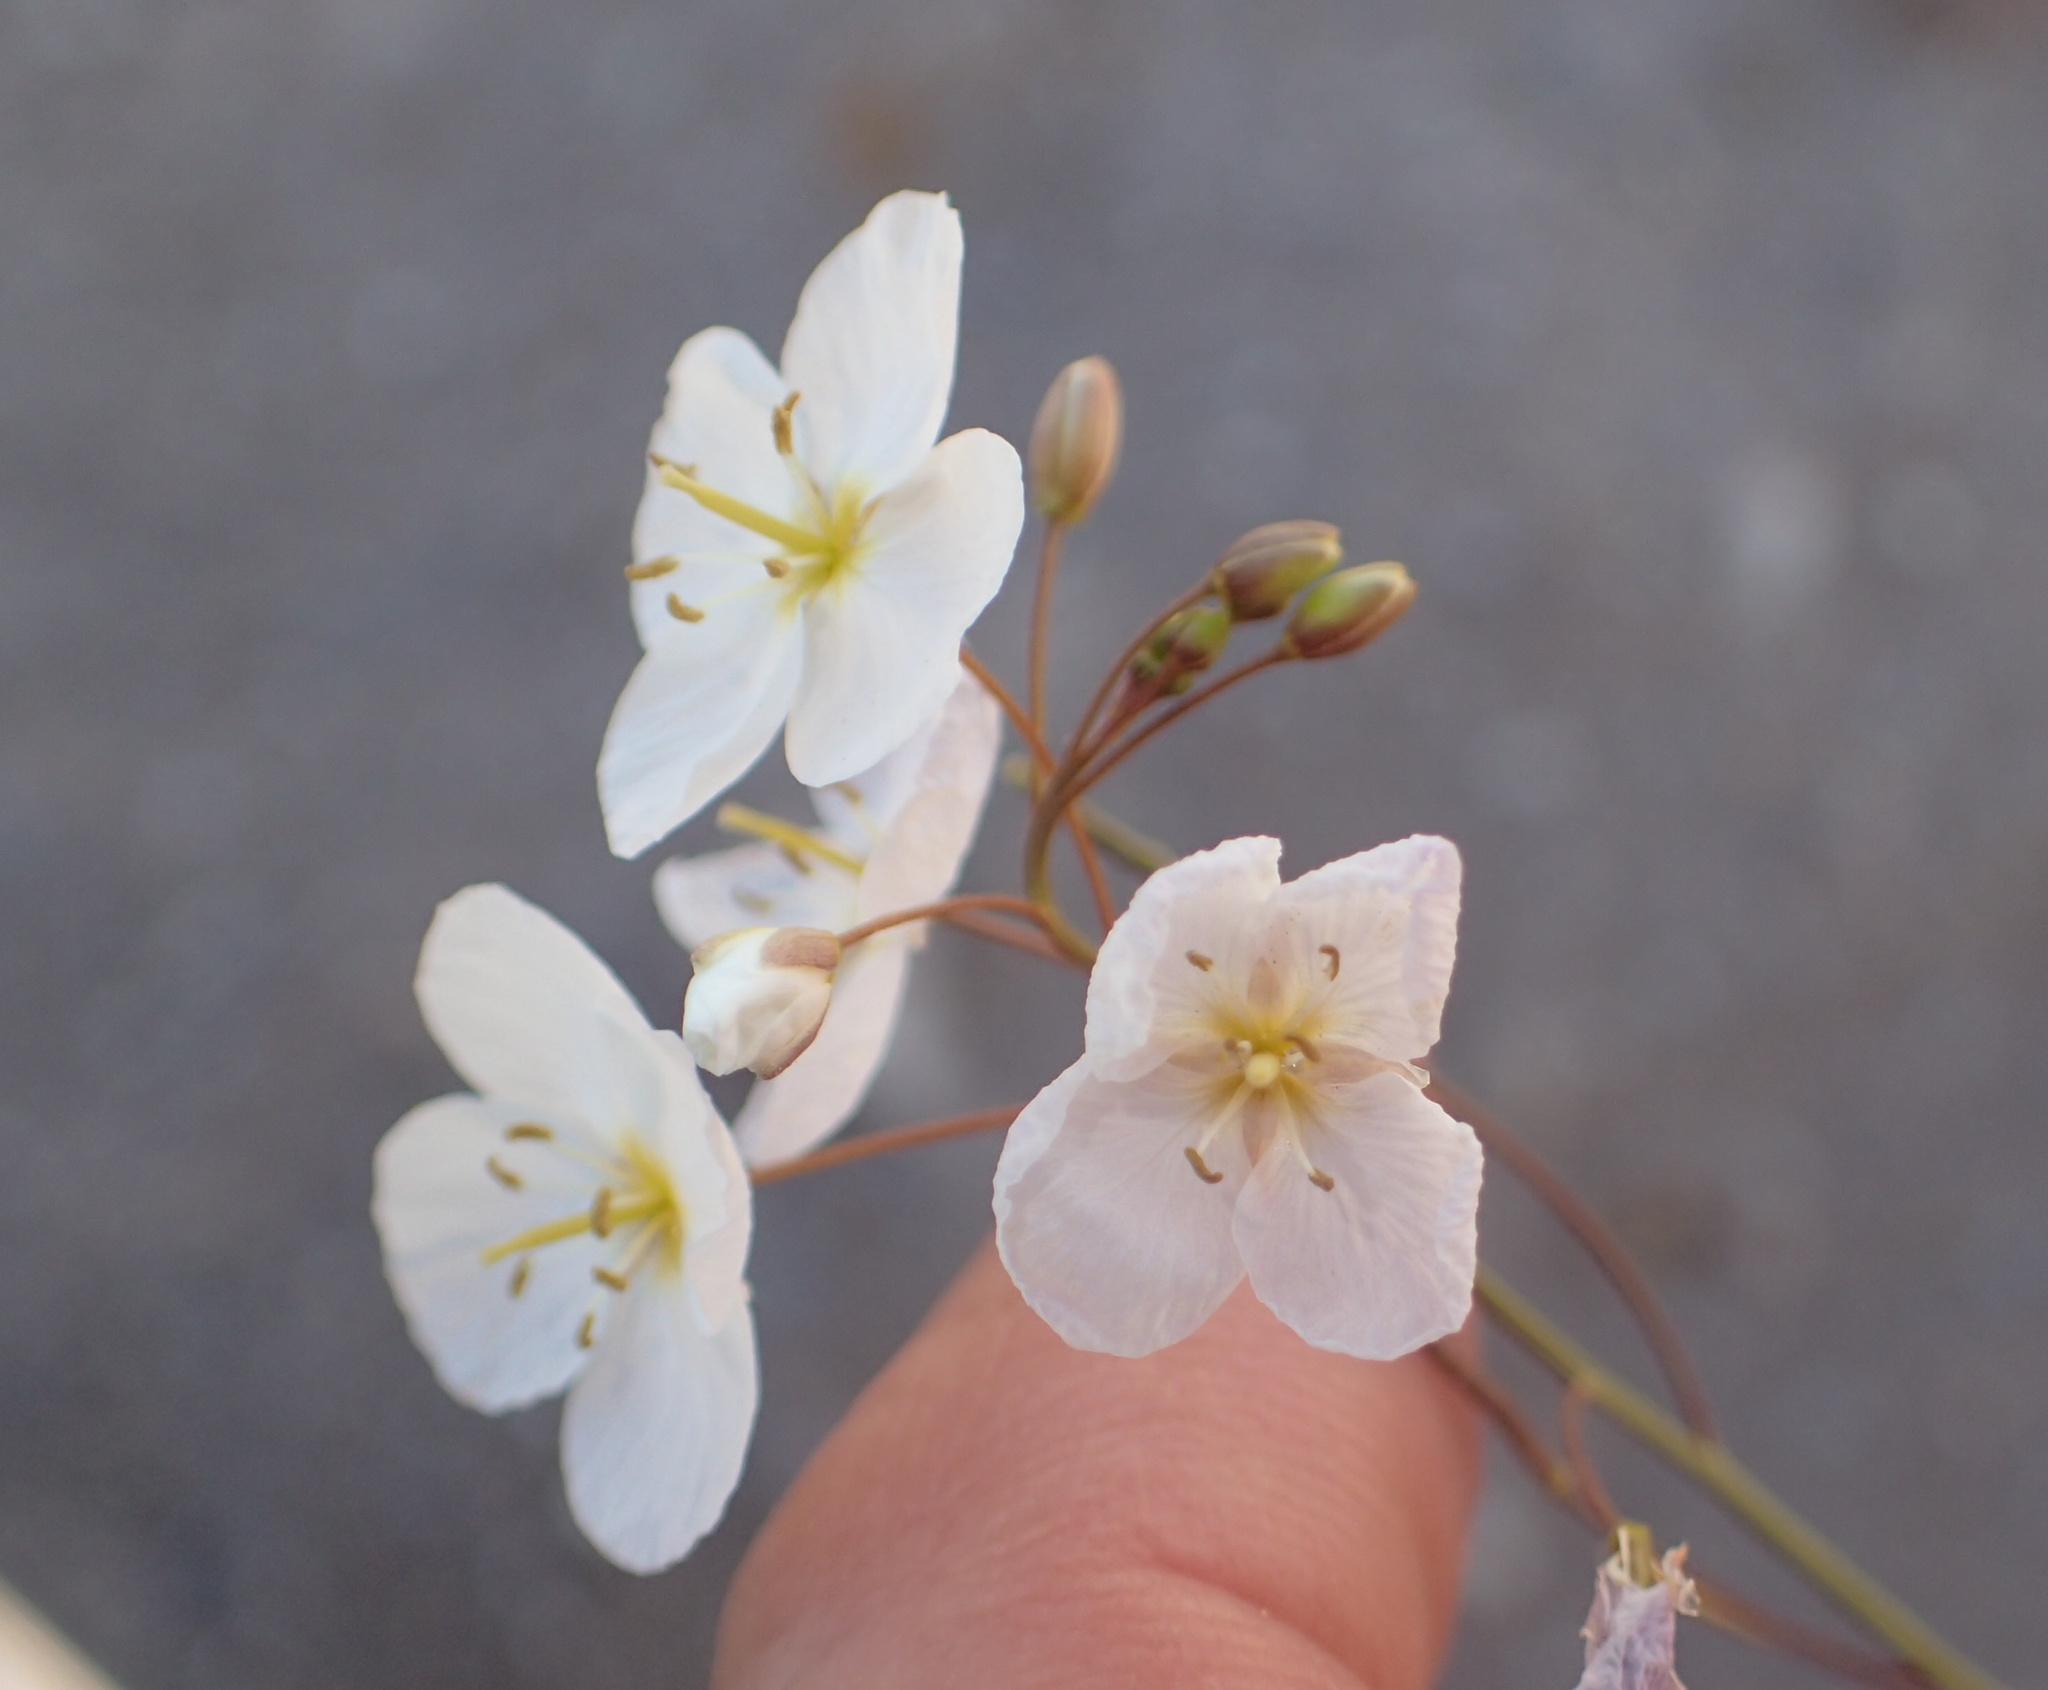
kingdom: Plantae
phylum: Tracheophyta
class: Magnoliopsida
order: Brassicales
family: Brassicaceae
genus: Heliophila
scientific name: Heliophila variabilis
